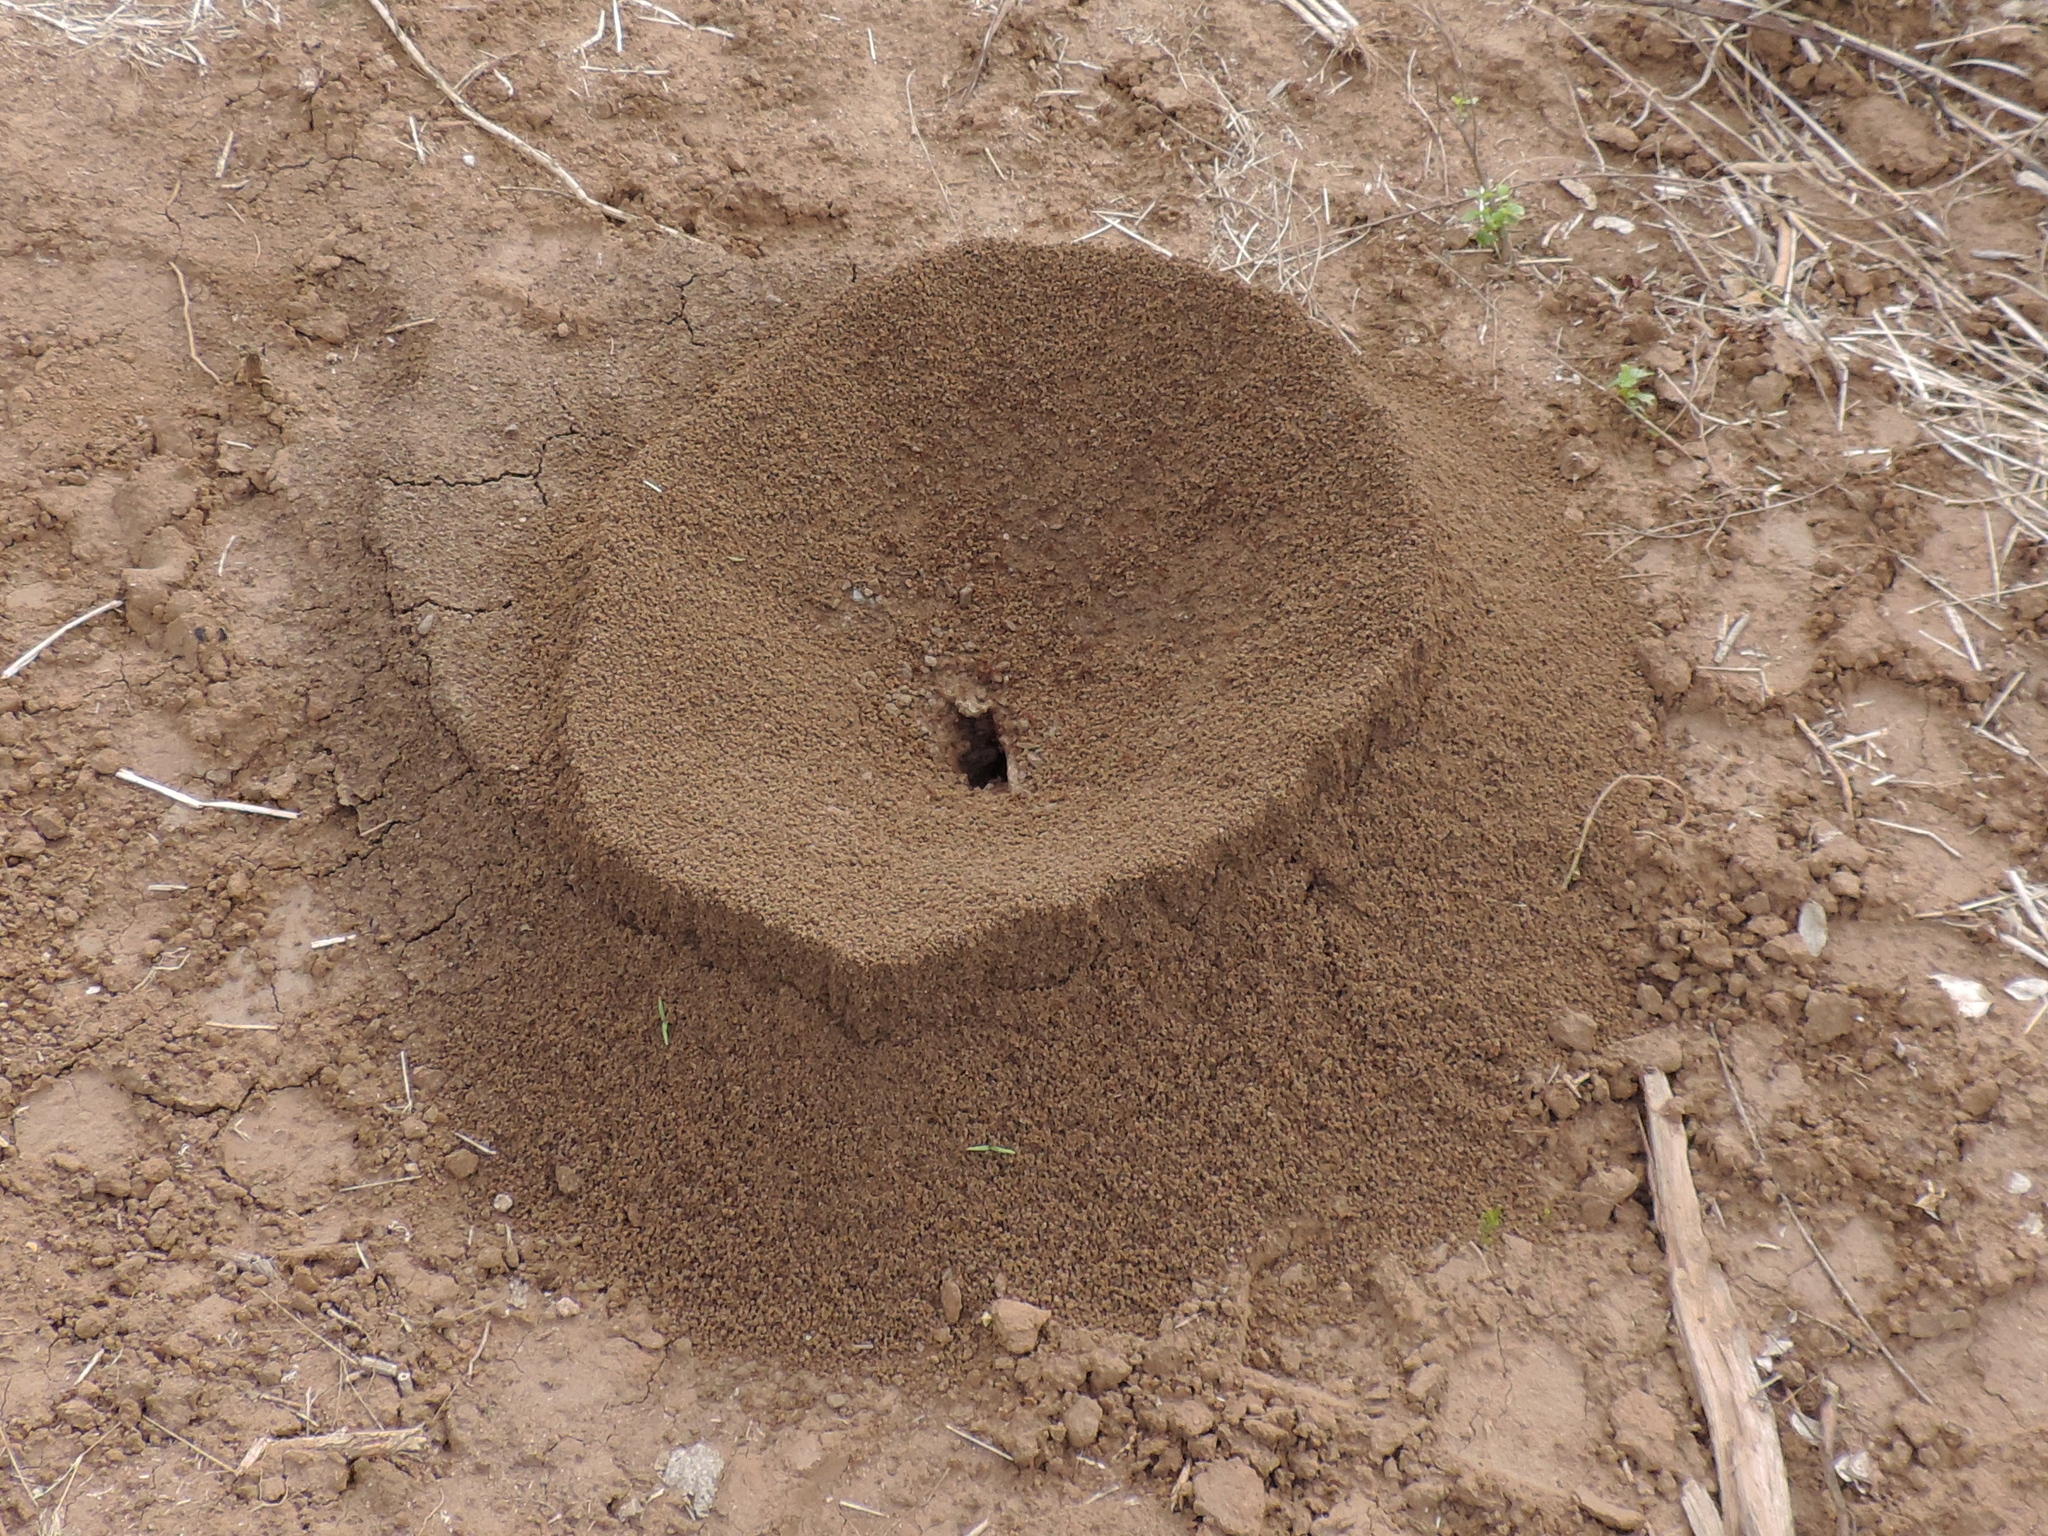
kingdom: Animalia
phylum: Arthropoda
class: Insecta
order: Hymenoptera
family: Formicidae
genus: Atta
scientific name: Atta mexicana
